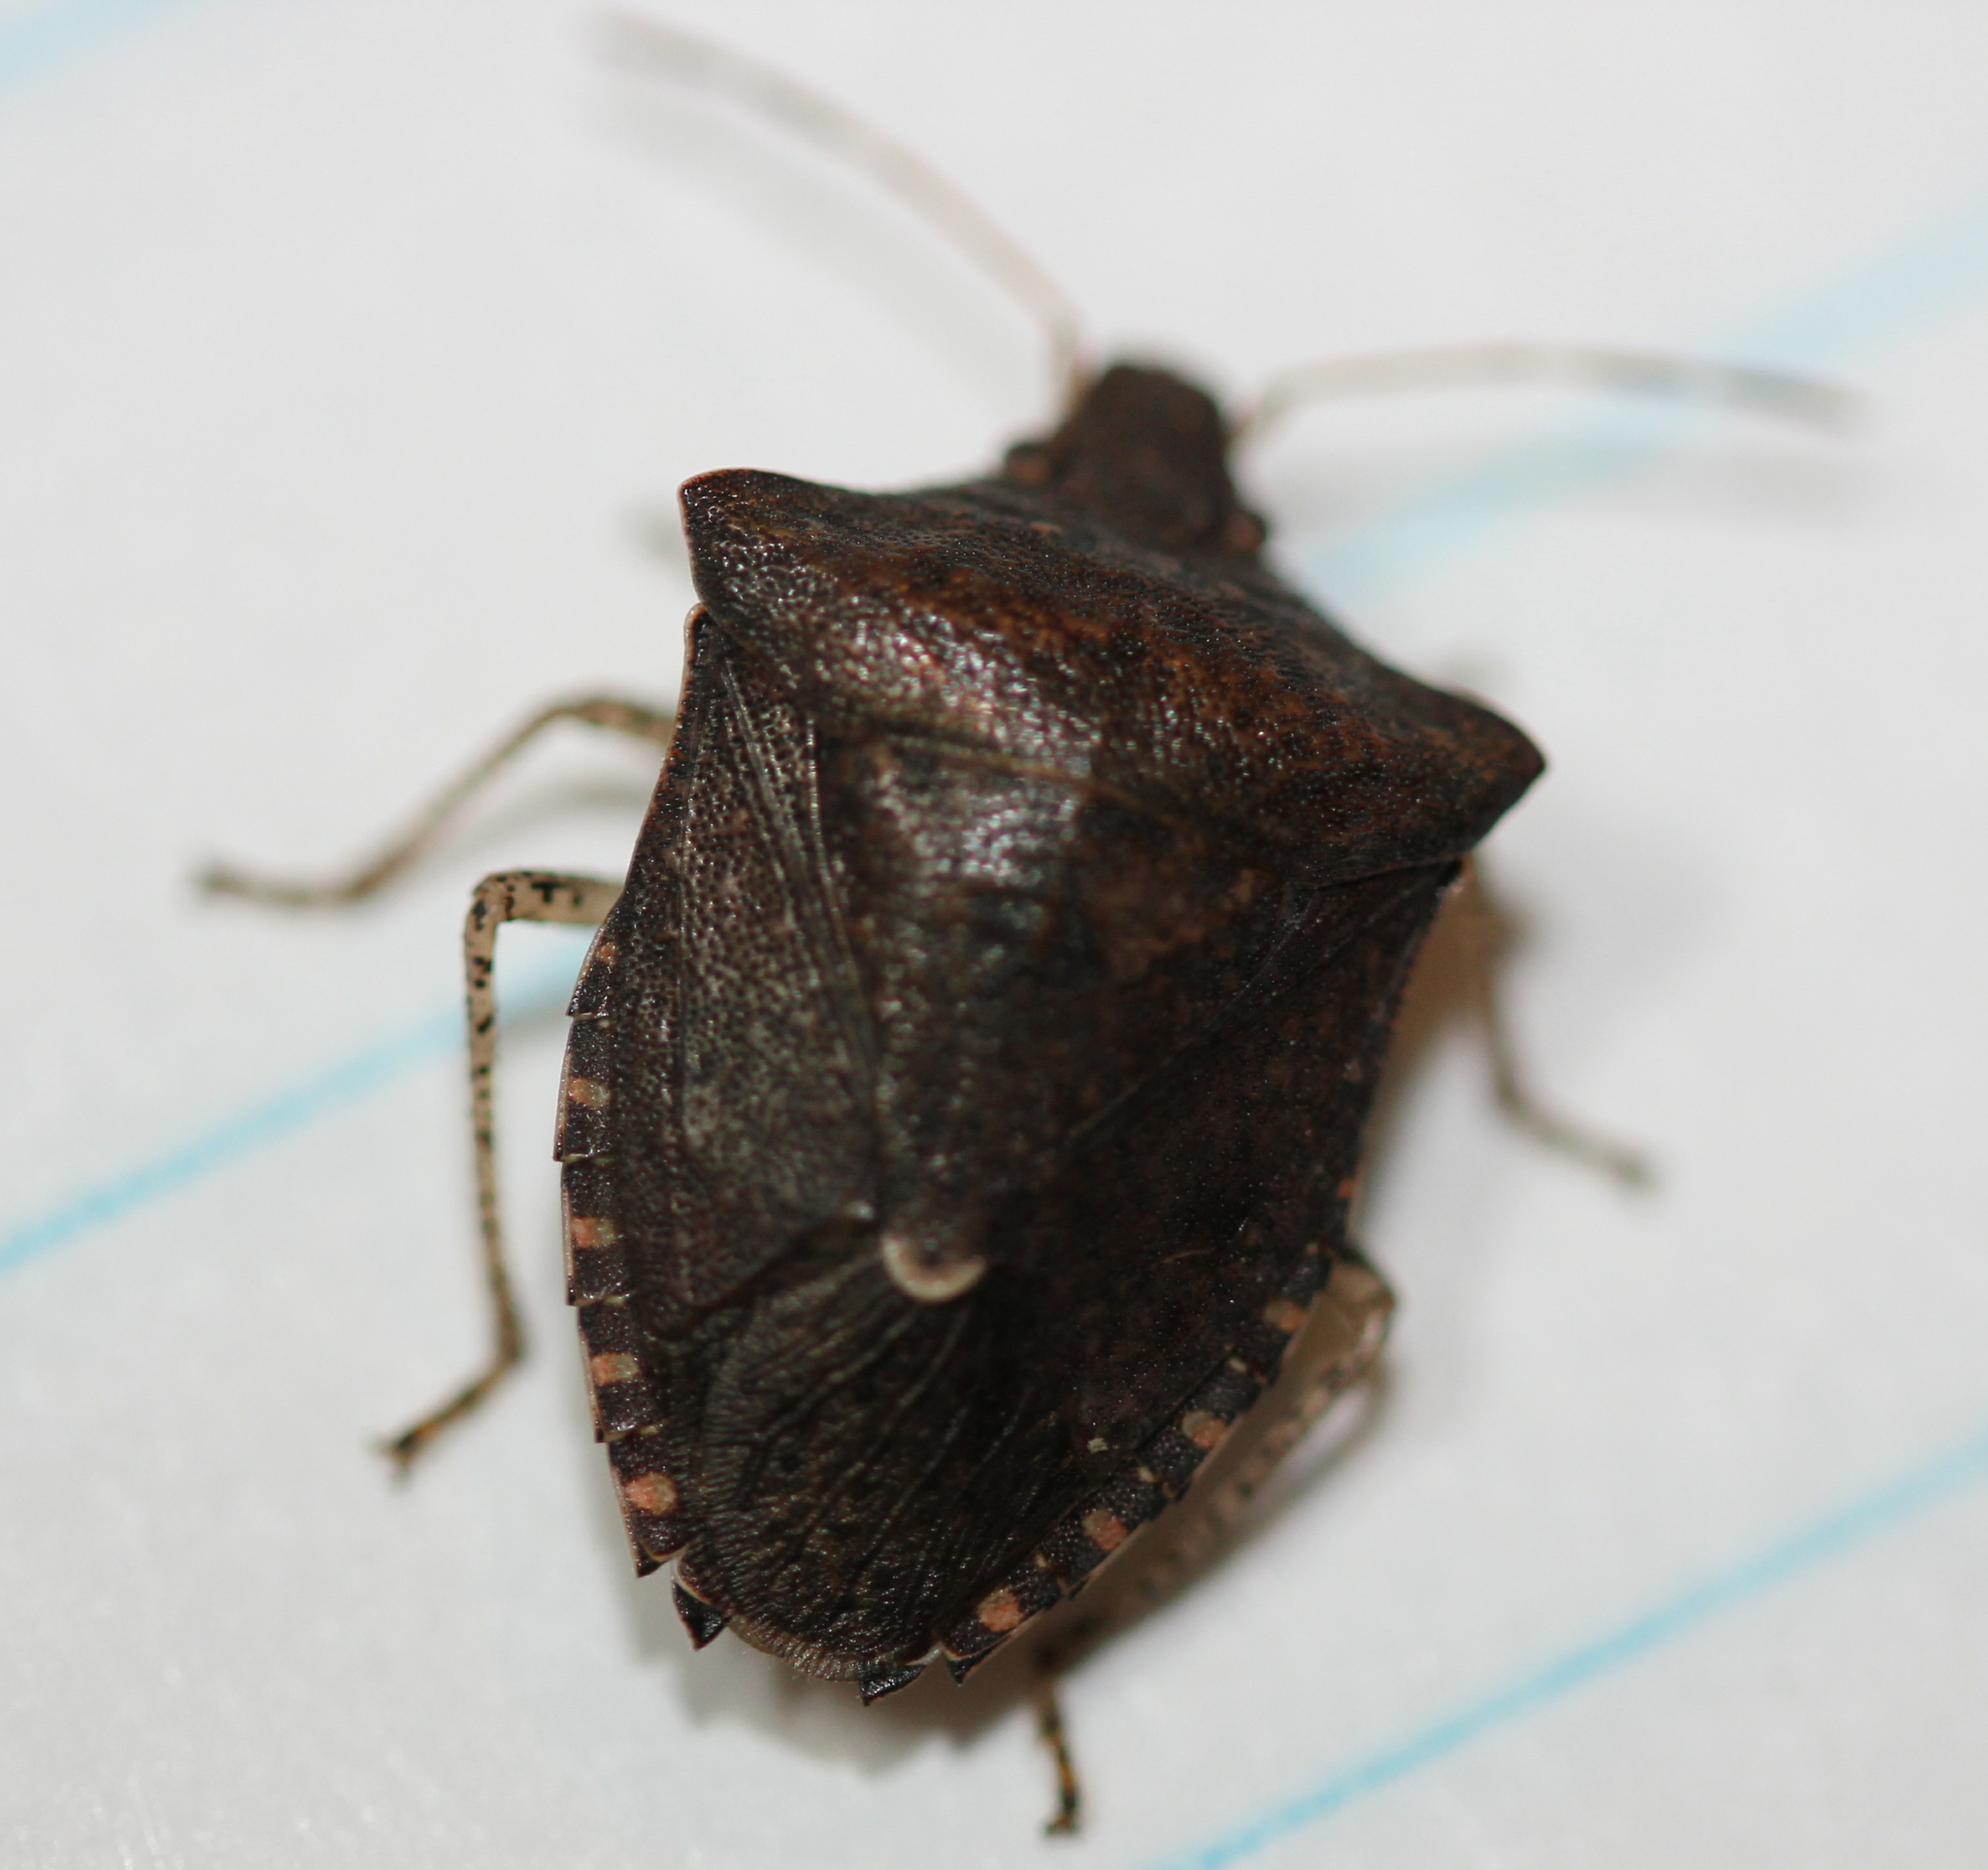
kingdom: Animalia
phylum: Arthropoda
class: Insecta
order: Hemiptera
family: Pentatomidae
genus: Euschistus
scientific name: Euschistus tristigmus
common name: Dusky stink bug
